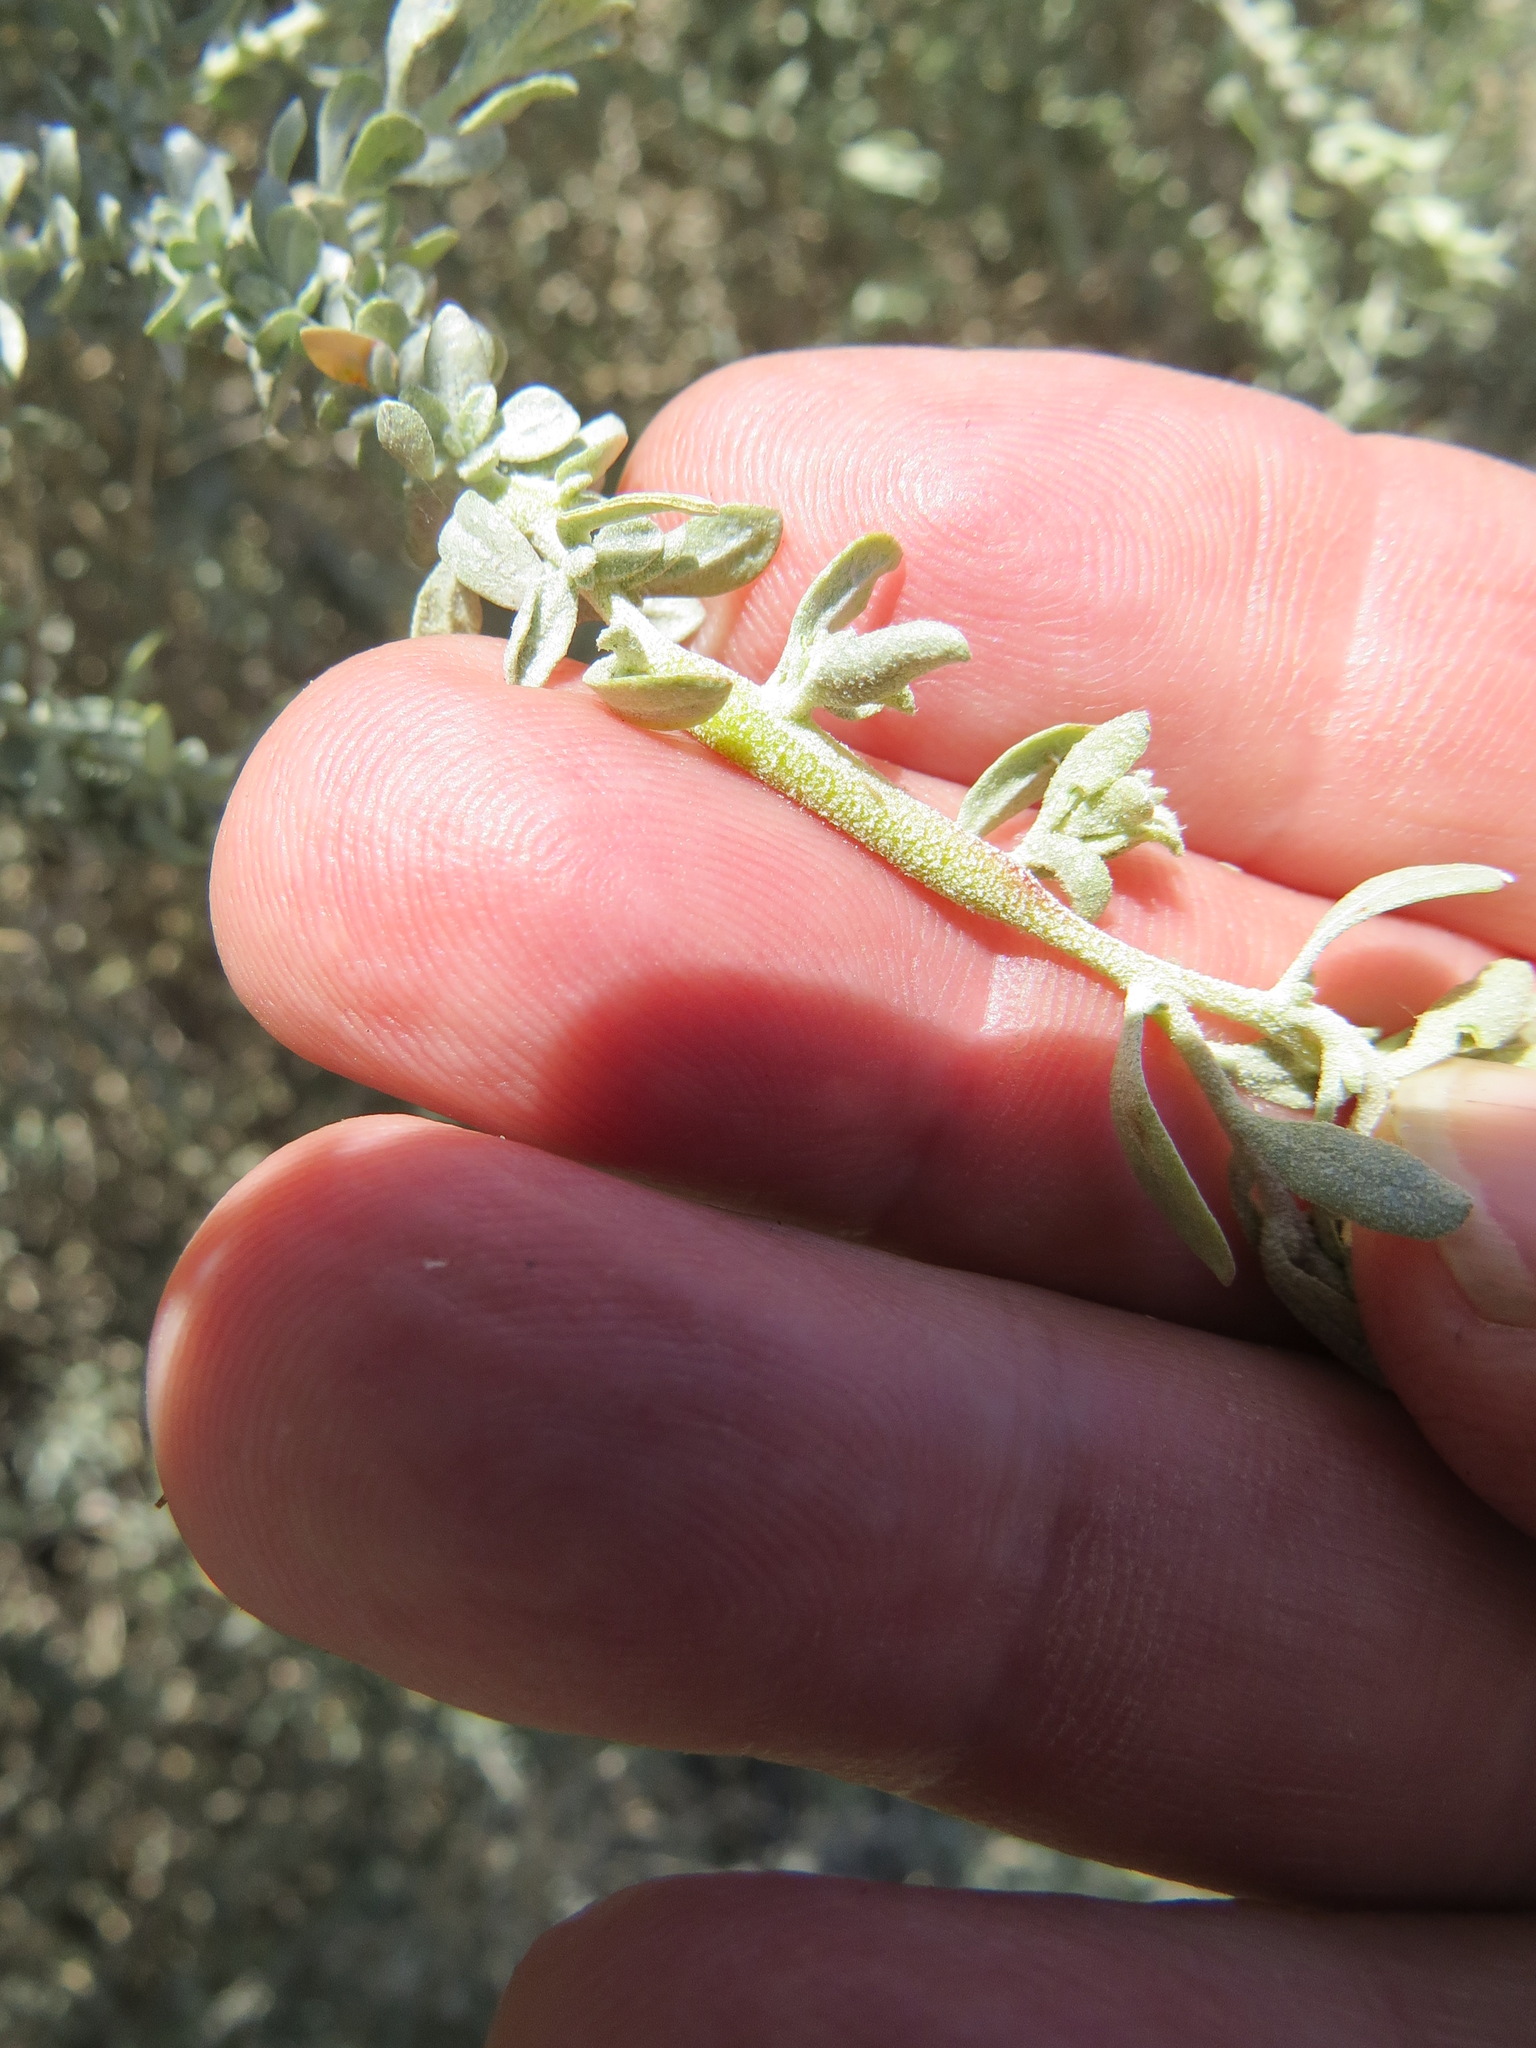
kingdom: Animalia
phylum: Arthropoda
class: Insecta
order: Diptera
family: Cecidomyiidae
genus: Neolasioptera
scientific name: Neolasioptera willistoni
